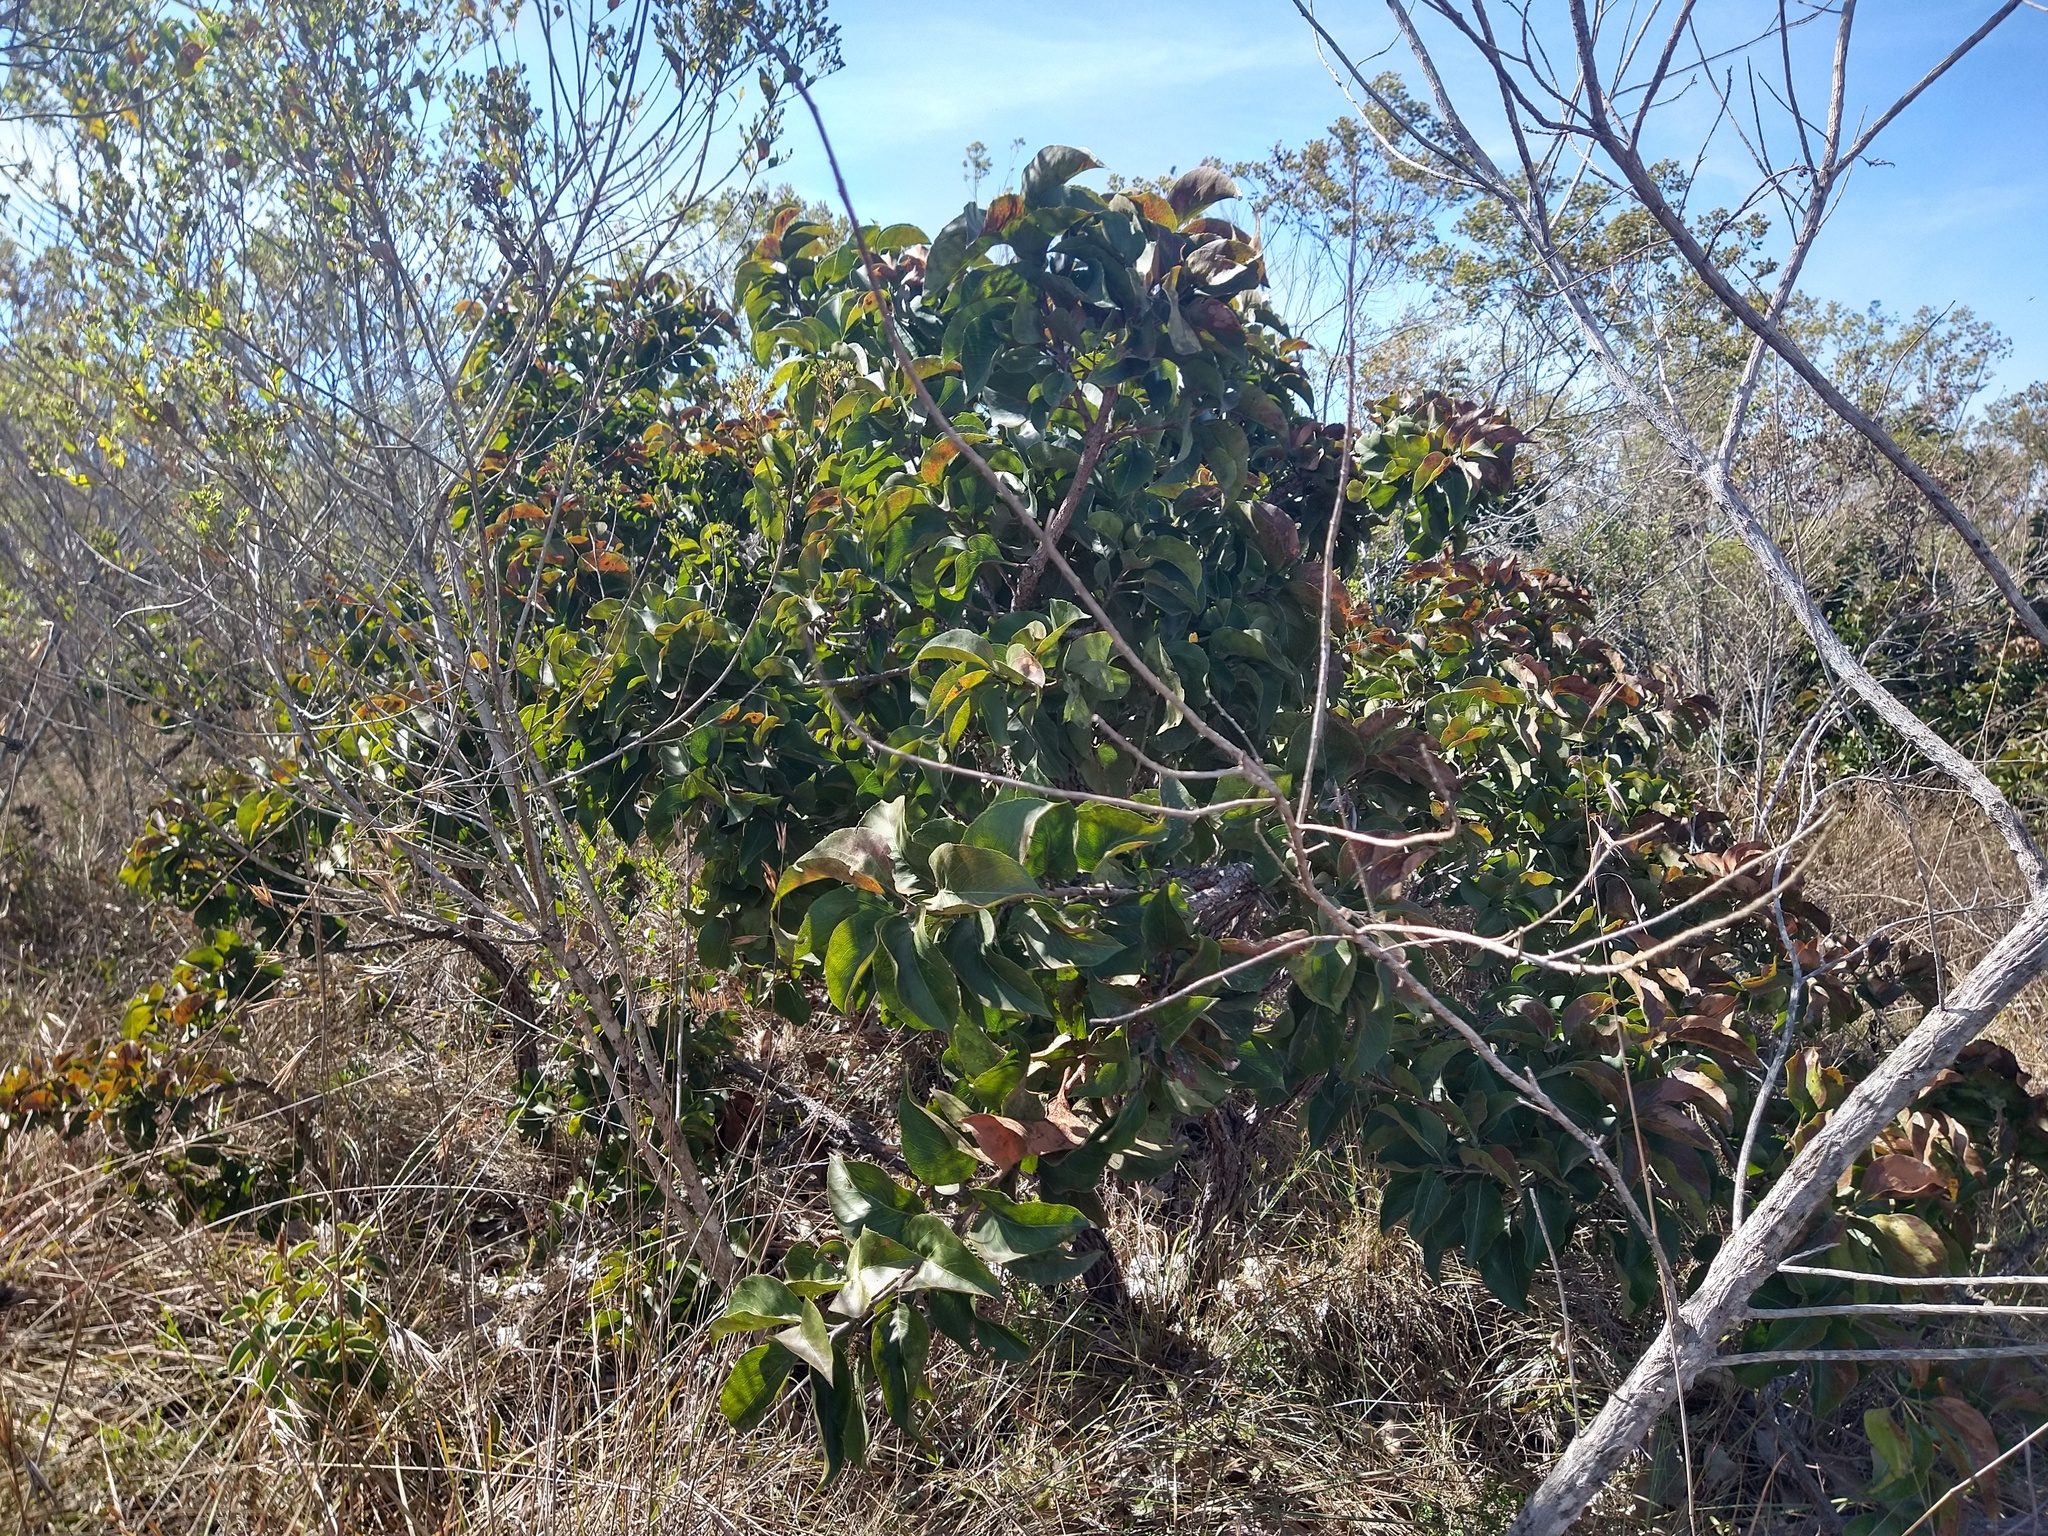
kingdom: Plantae
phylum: Tracheophyta
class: Magnoliopsida
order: Proteales
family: Proteaceae
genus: Roupala
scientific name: Roupala montana
